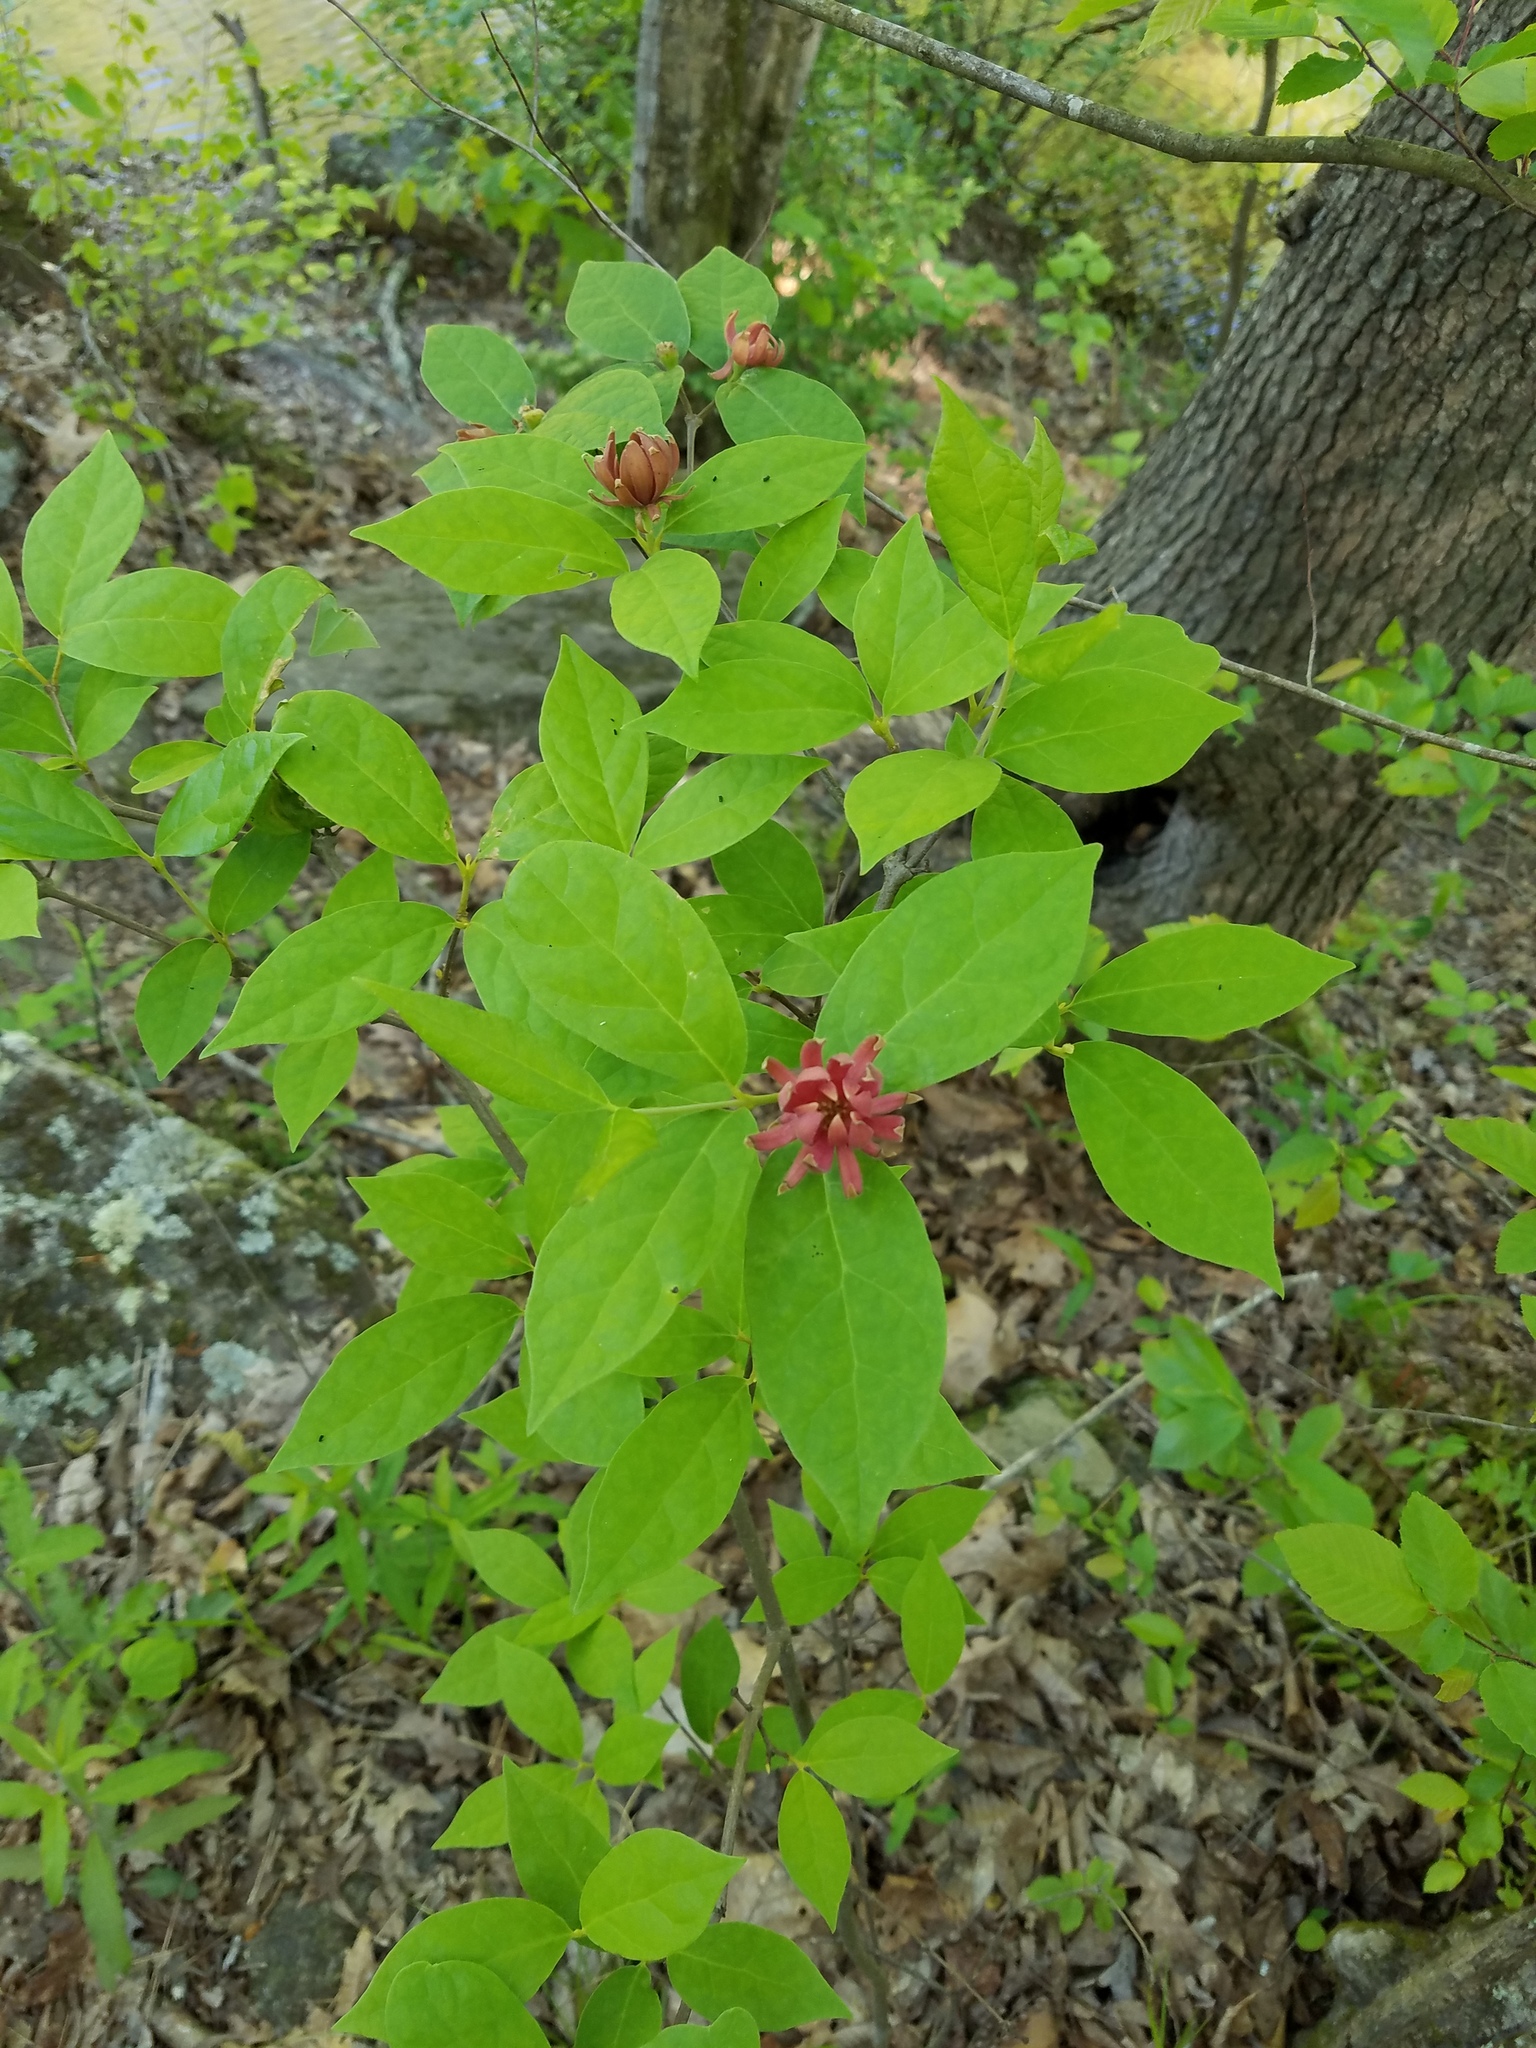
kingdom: Plantae
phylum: Tracheophyta
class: Magnoliopsida
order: Laurales
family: Calycanthaceae
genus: Calycanthus
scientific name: Calycanthus floridus
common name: Carolina-allspice
